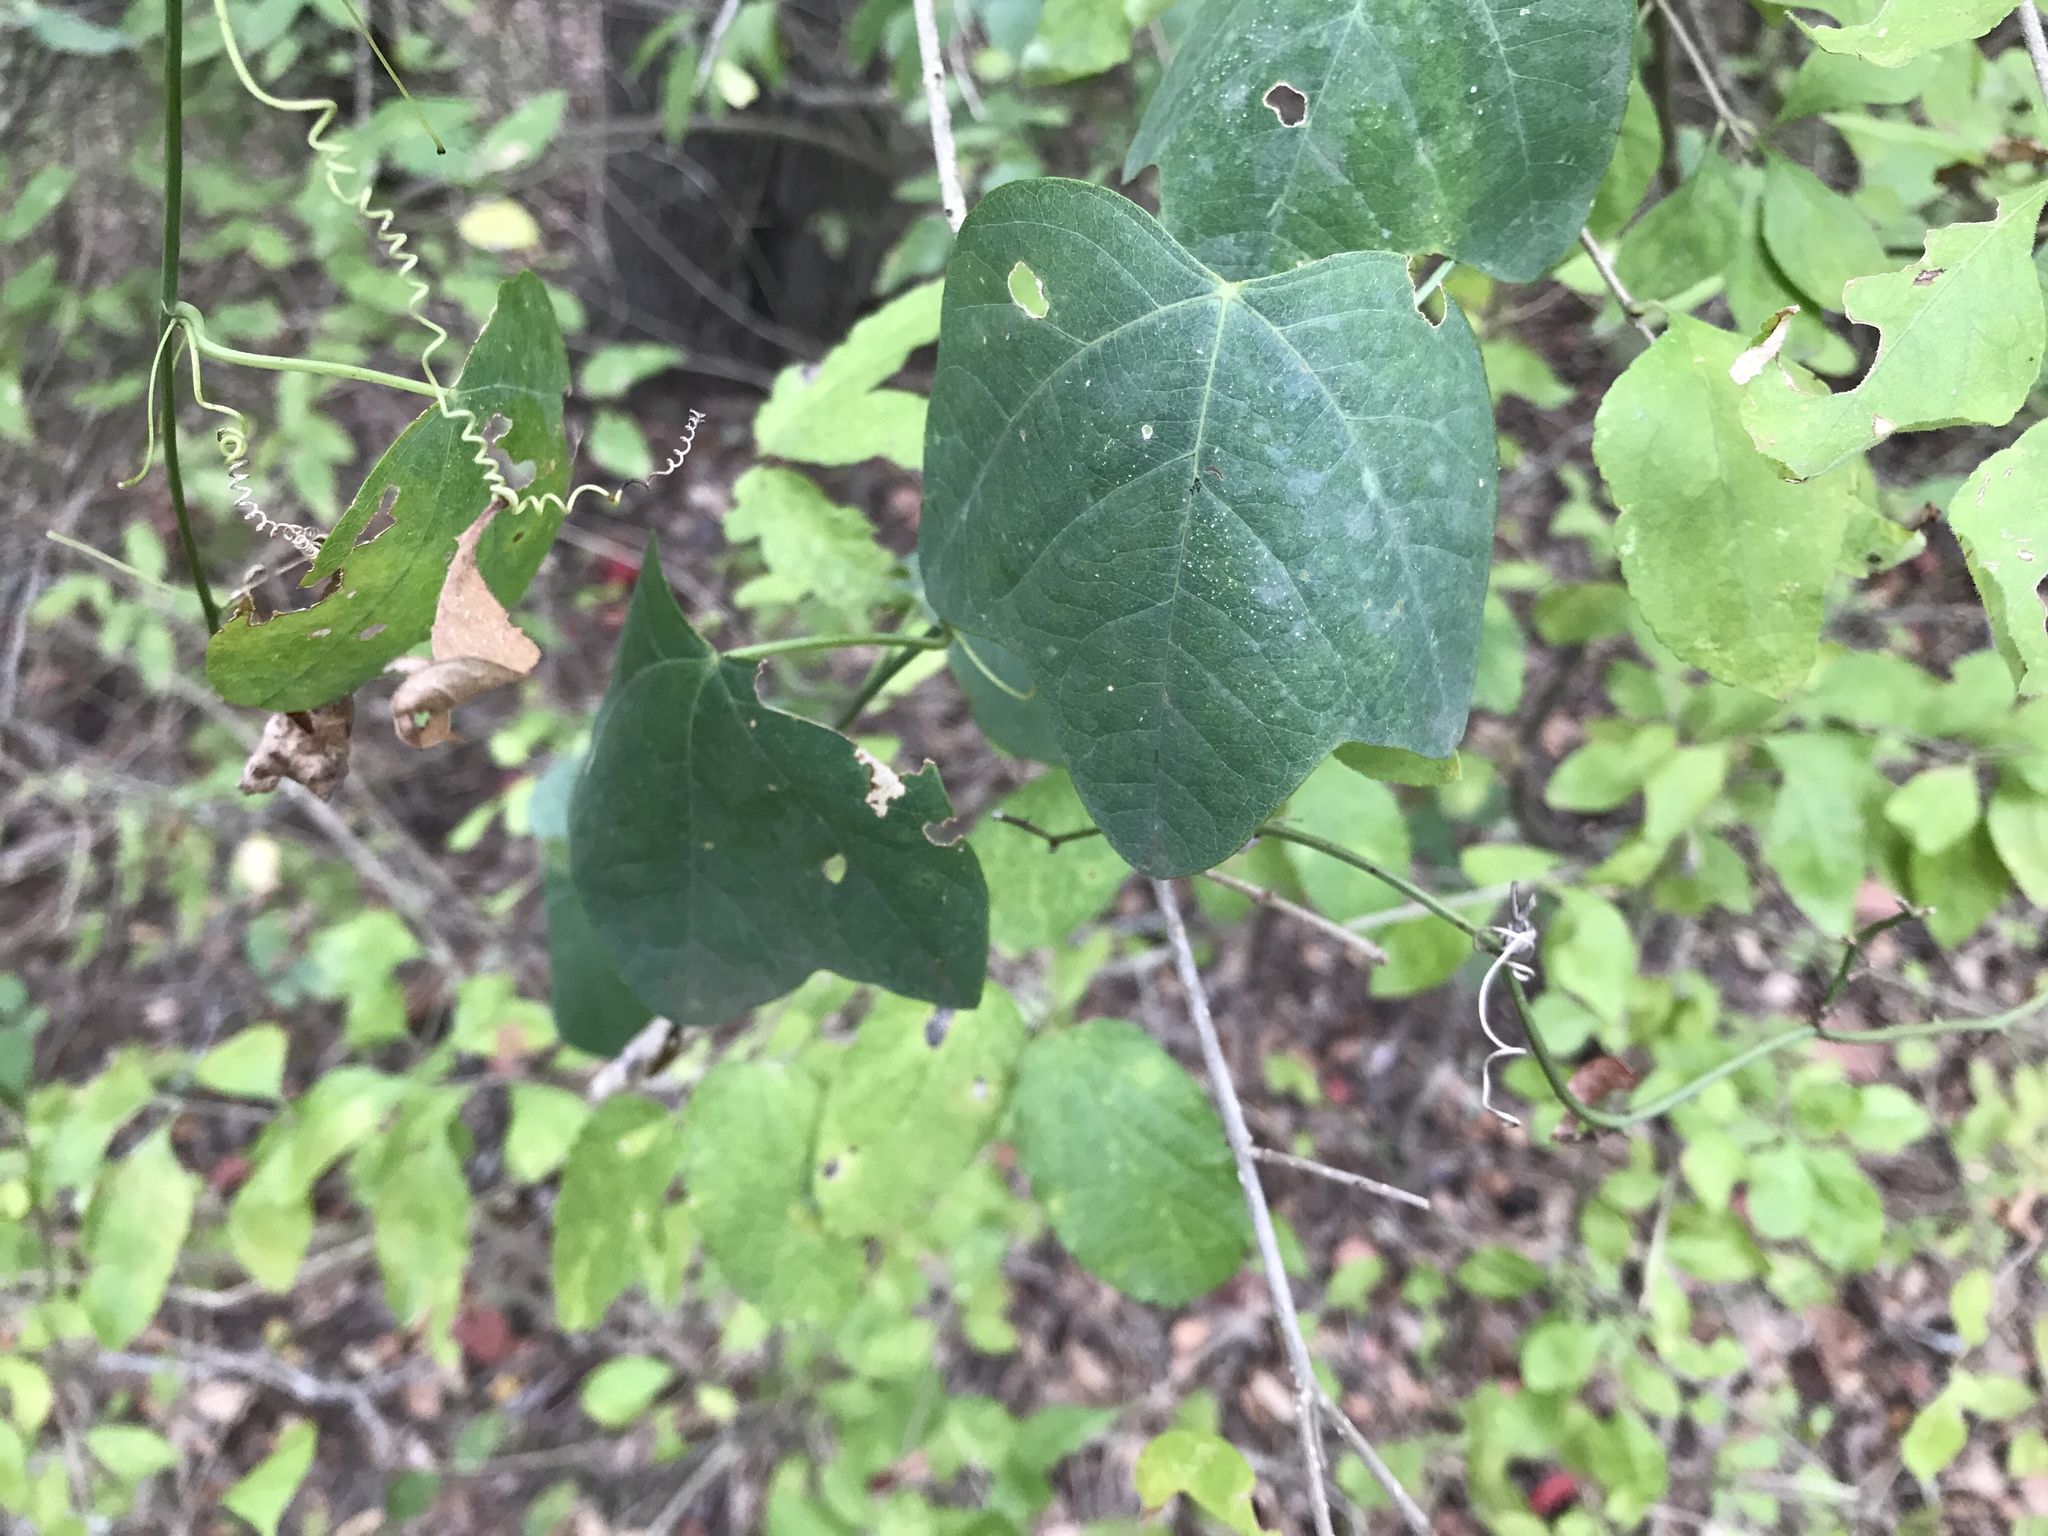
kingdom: Plantae
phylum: Tracheophyta
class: Magnoliopsida
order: Malpighiales
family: Passifloraceae
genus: Passiflora
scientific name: Passiflora lutea
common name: Yellow passionflower
